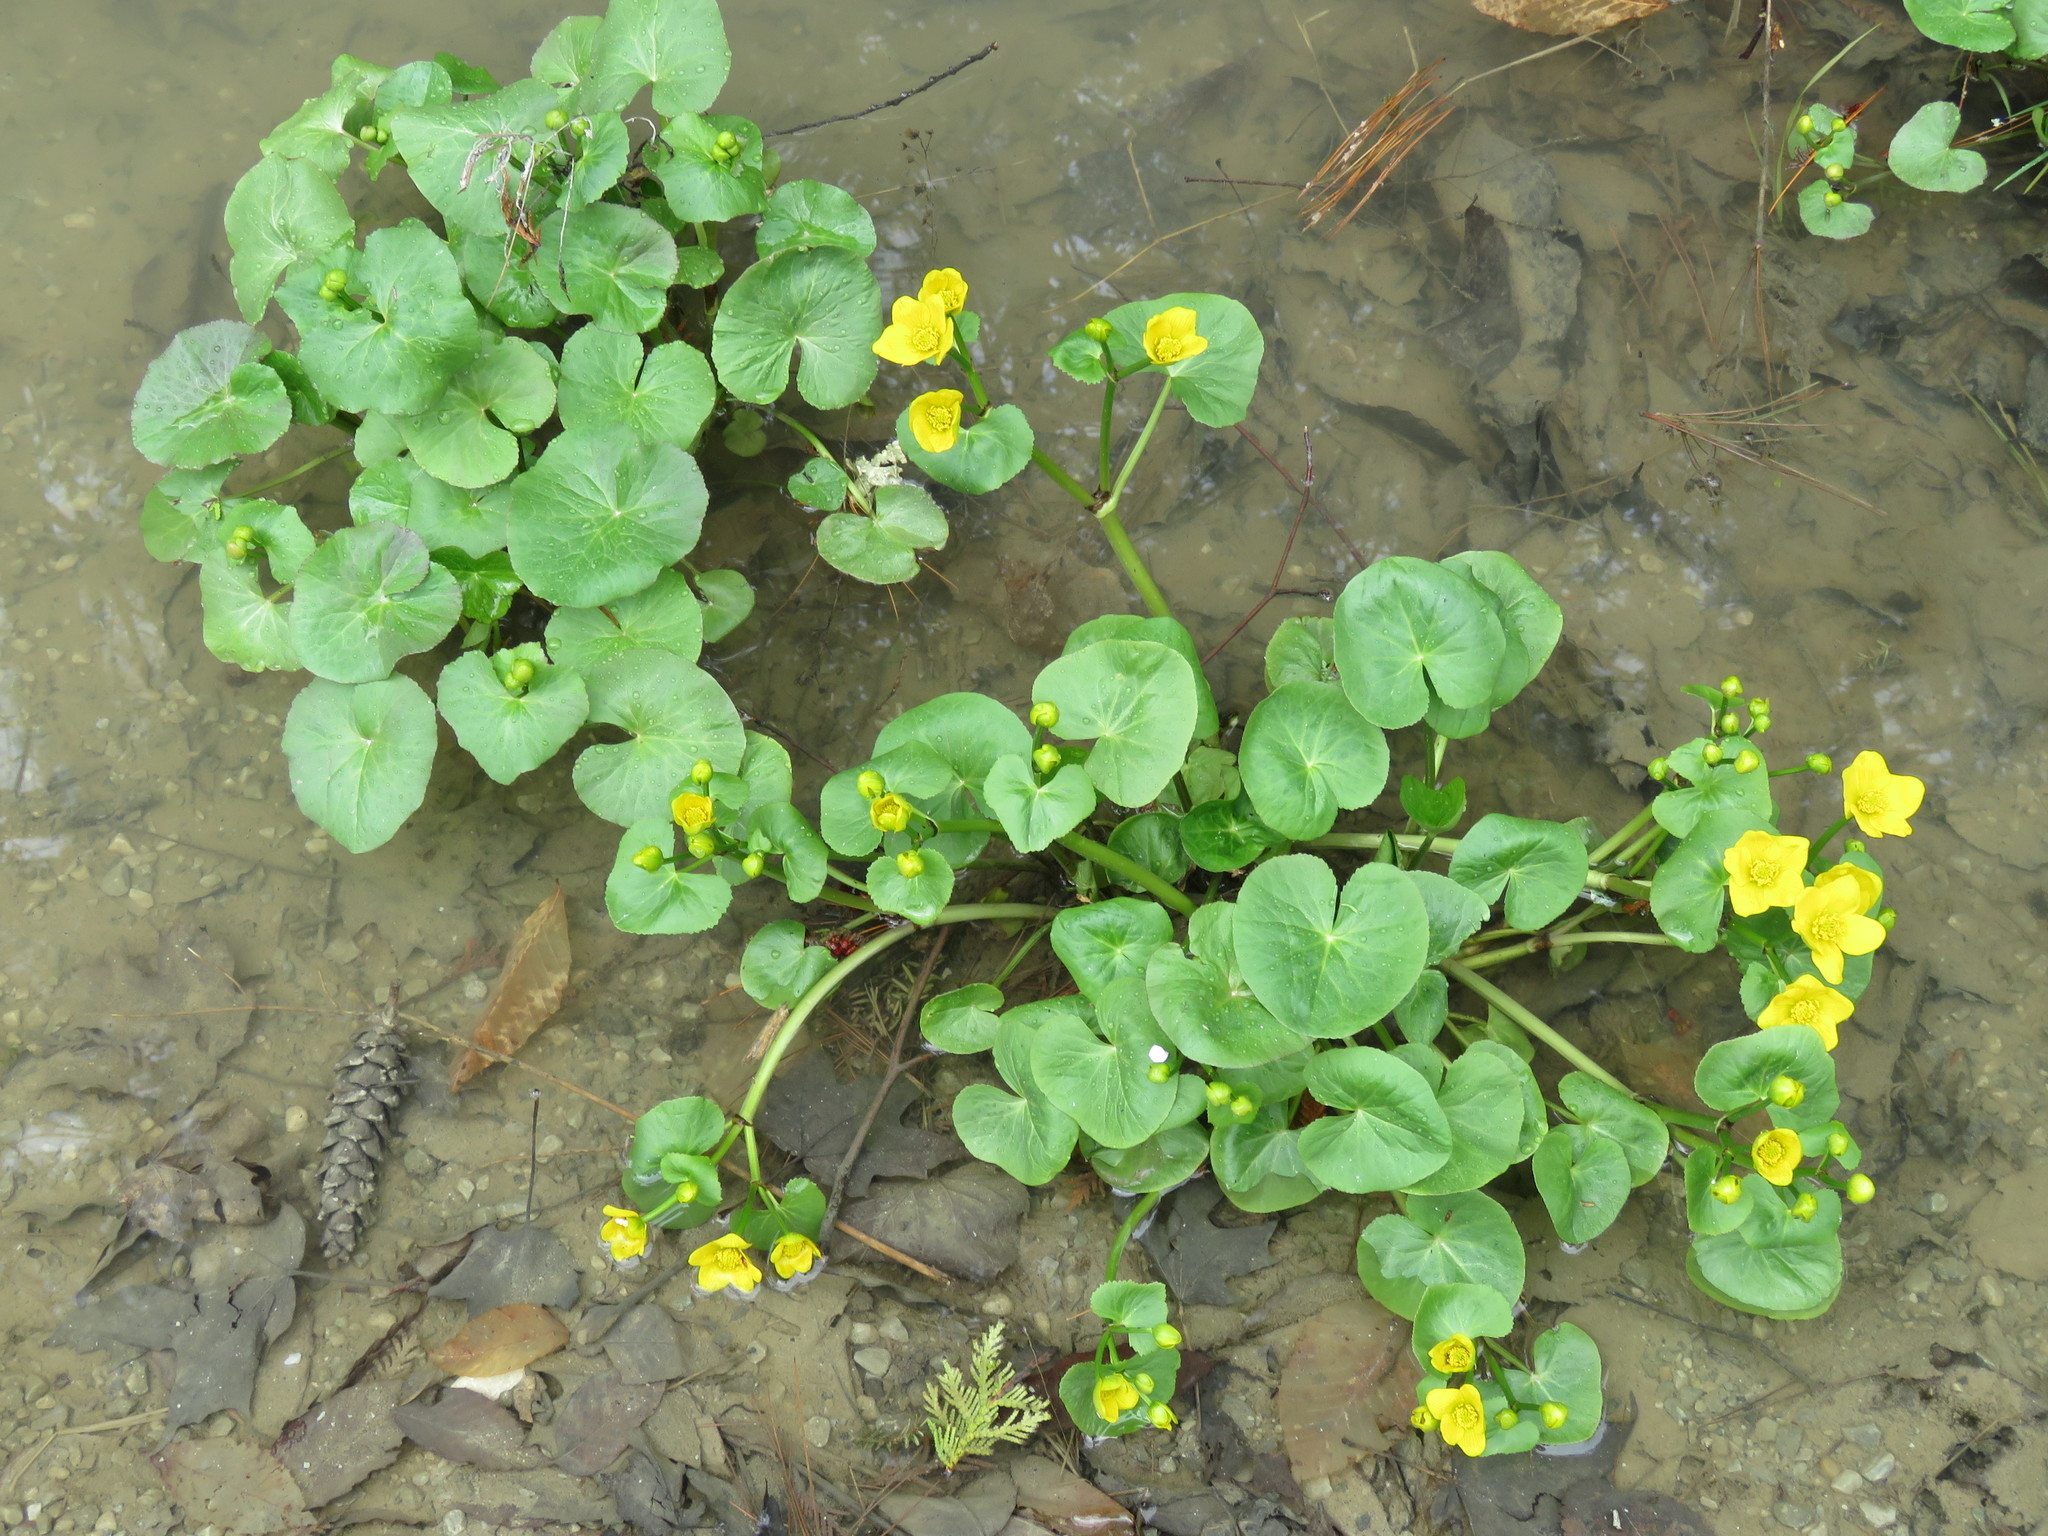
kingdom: Plantae
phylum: Tracheophyta
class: Magnoliopsida
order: Ranunculales
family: Ranunculaceae
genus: Caltha
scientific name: Caltha palustris
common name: Marsh marigold
